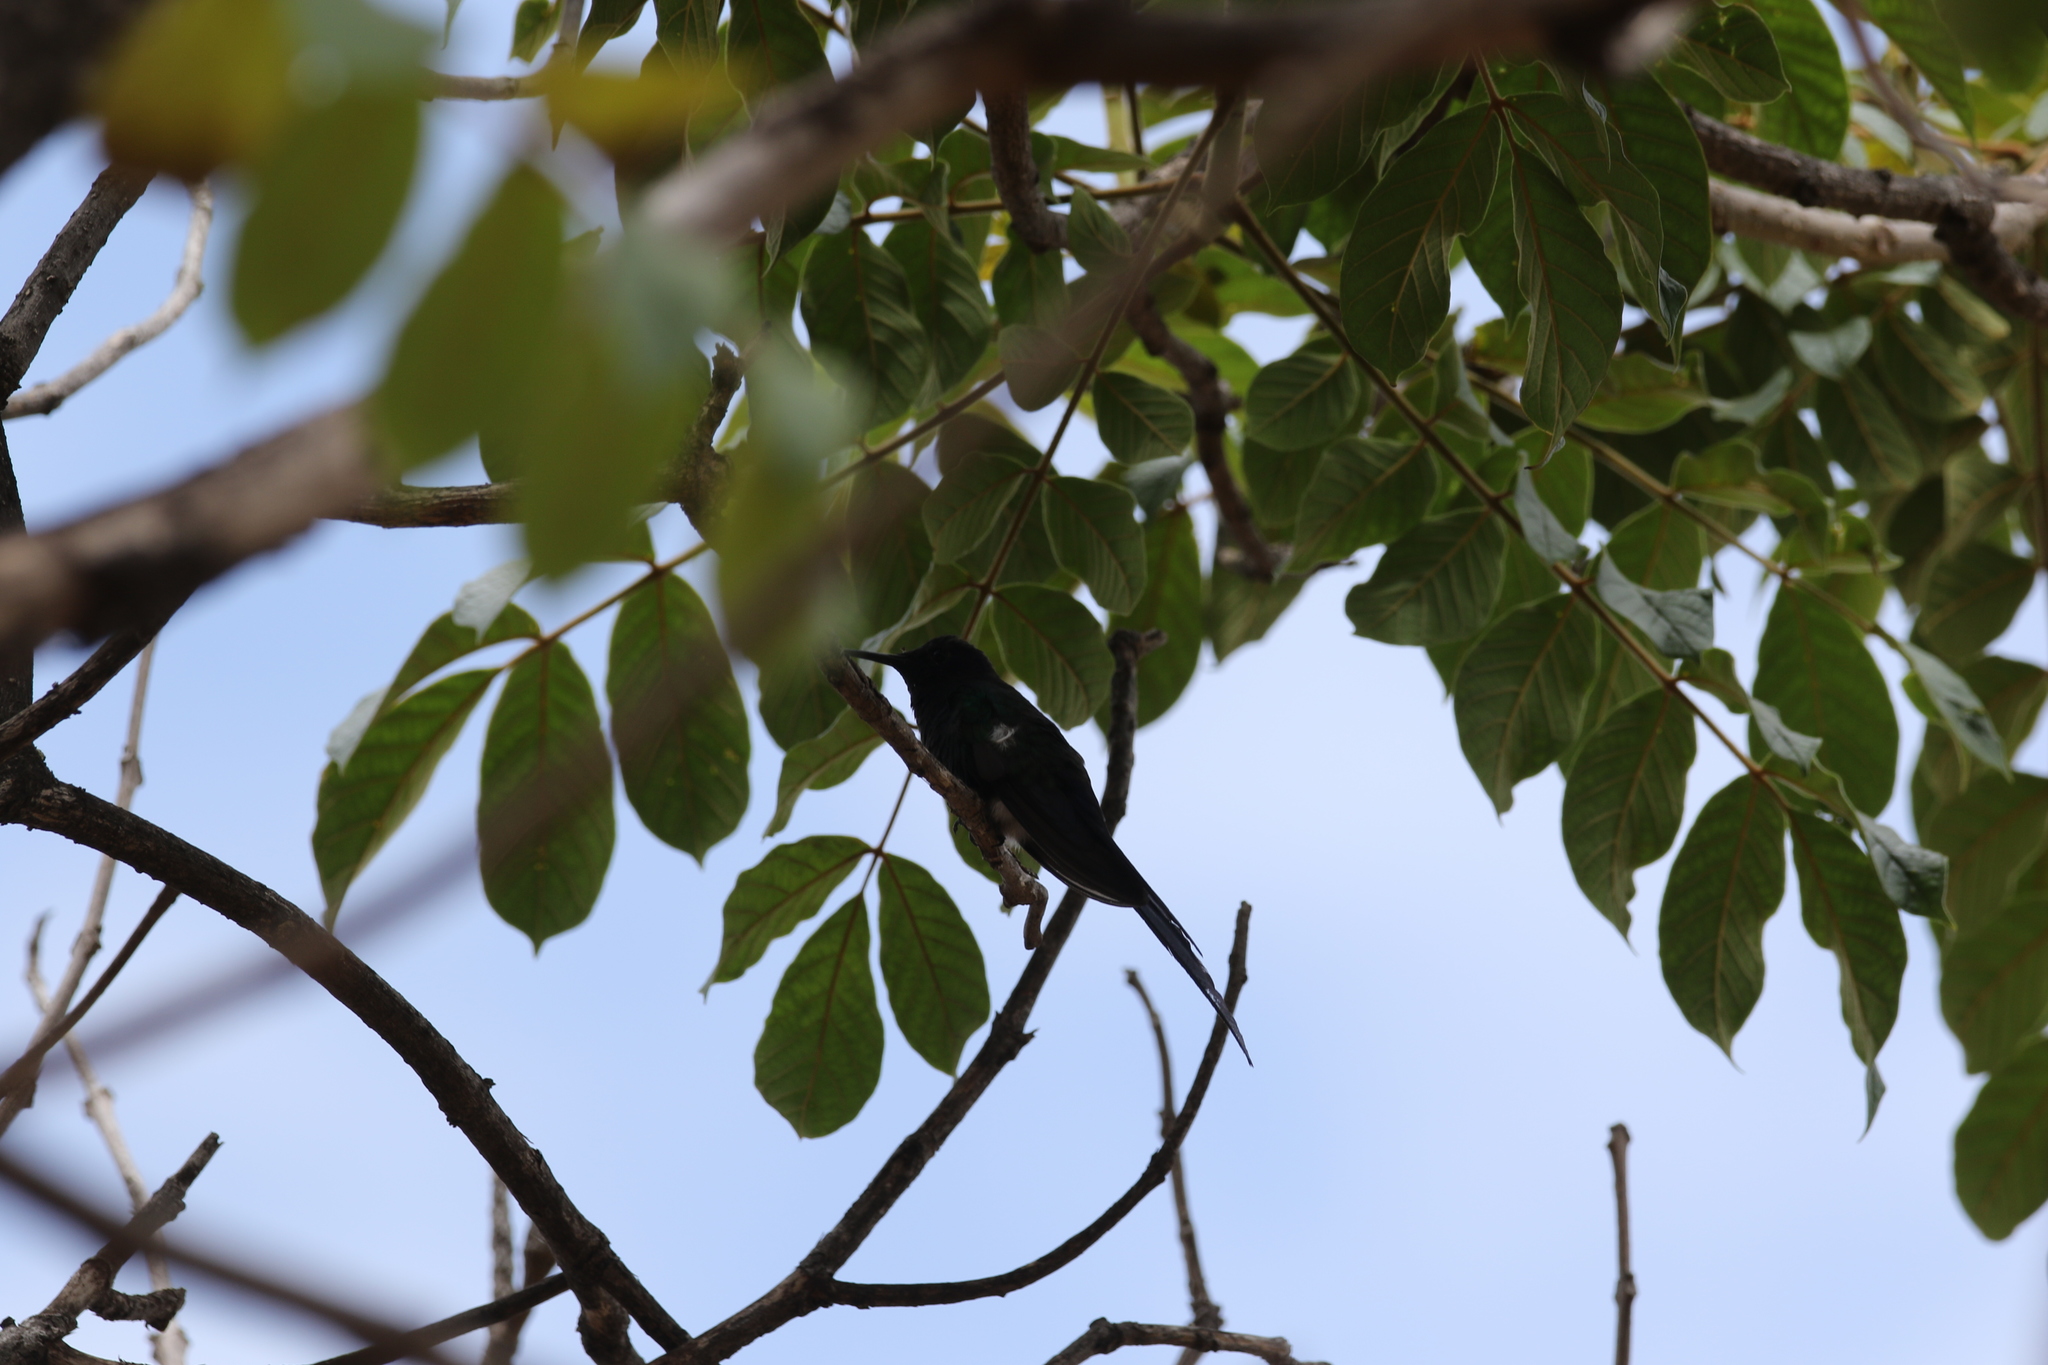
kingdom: Animalia
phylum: Chordata
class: Aves
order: Apodiformes
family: Trochilidae
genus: Eupetomena
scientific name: Eupetomena macroura
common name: Swallow-tailed hummingbird
